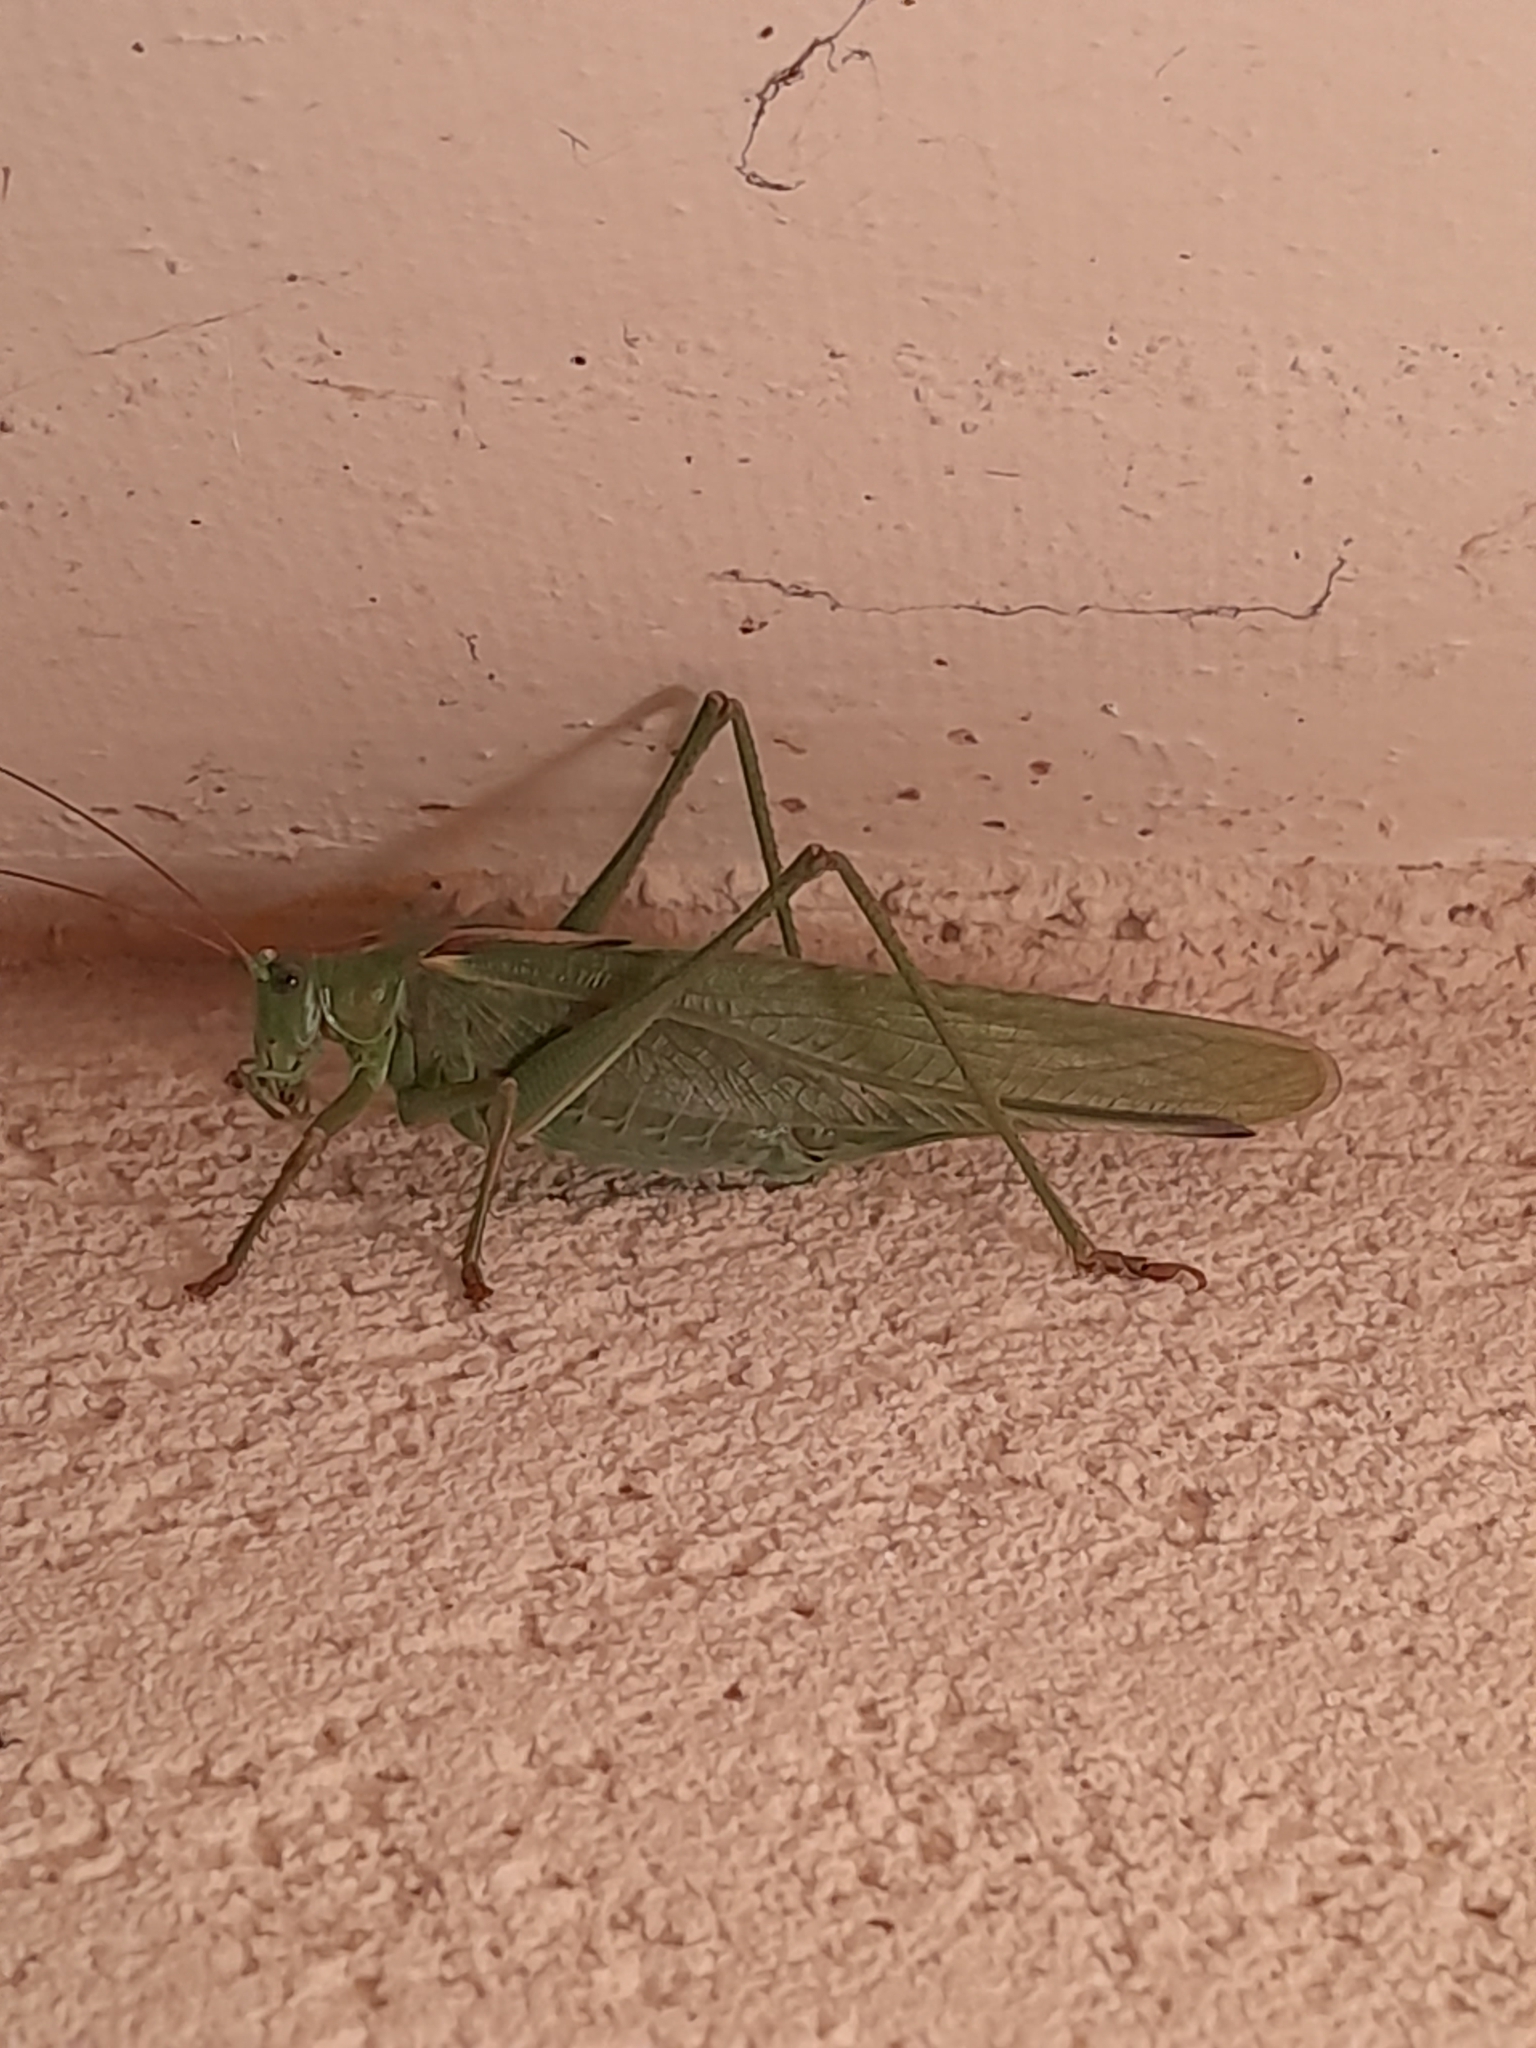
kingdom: Animalia
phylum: Arthropoda
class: Insecta
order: Orthoptera
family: Tettigoniidae
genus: Tettigonia
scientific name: Tettigonia viridissima
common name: Great green bush-cricket
